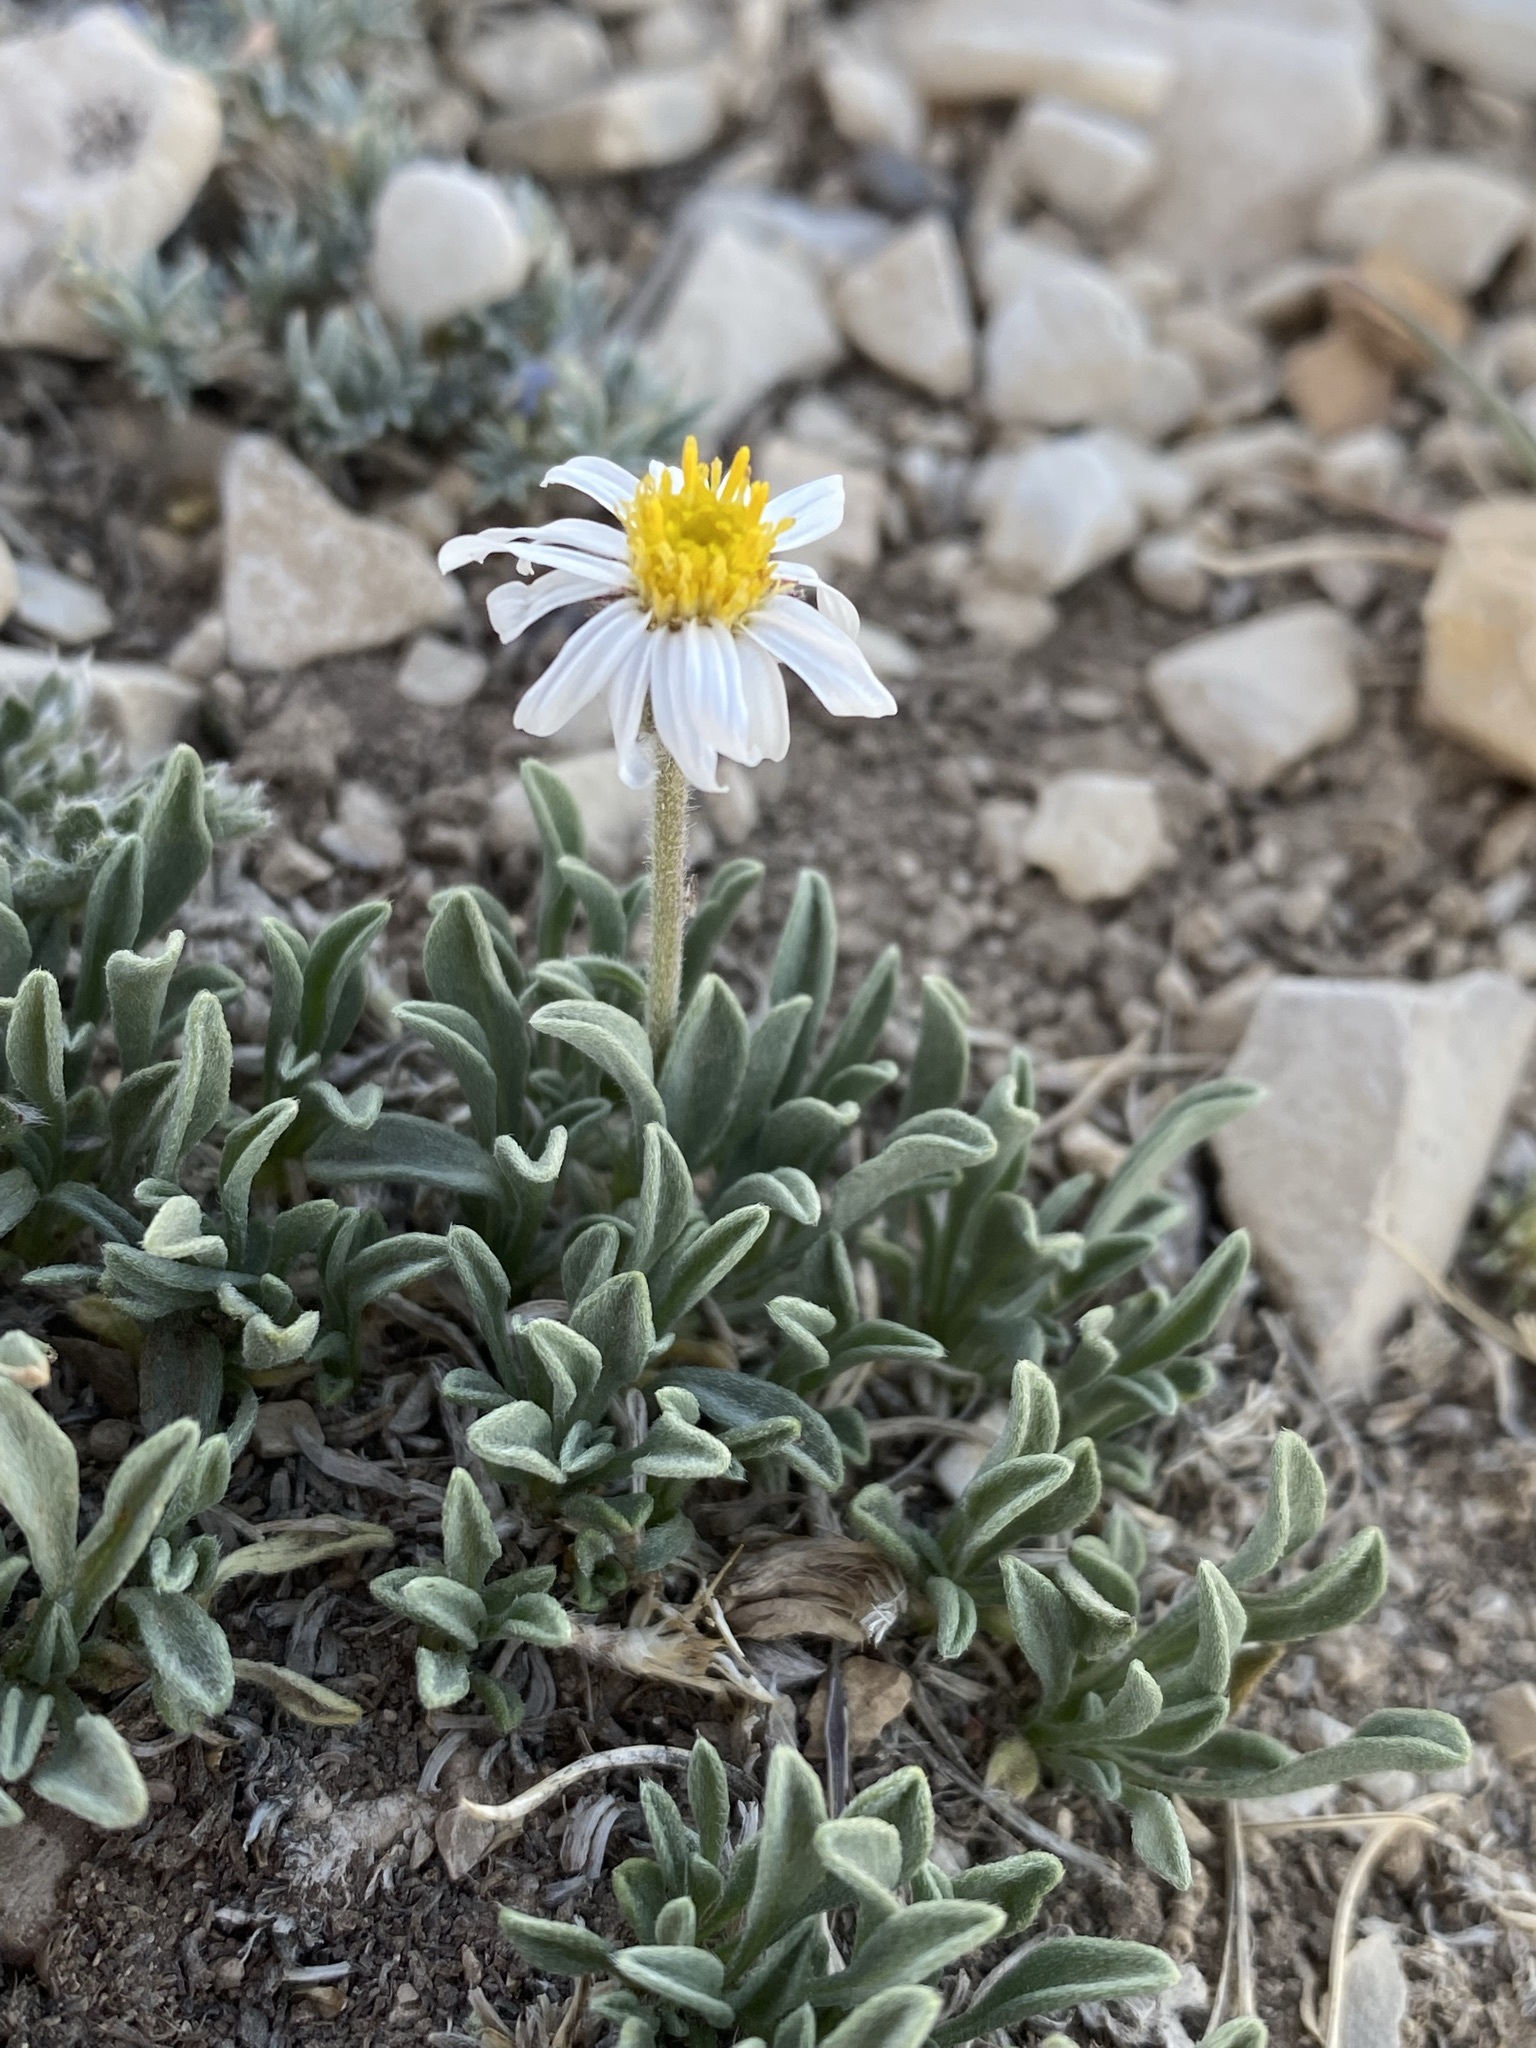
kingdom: Plantae
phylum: Tracheophyta
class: Magnoliopsida
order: Asterales
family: Asteraceae
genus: Erigeron
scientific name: Erigeron untermannii
